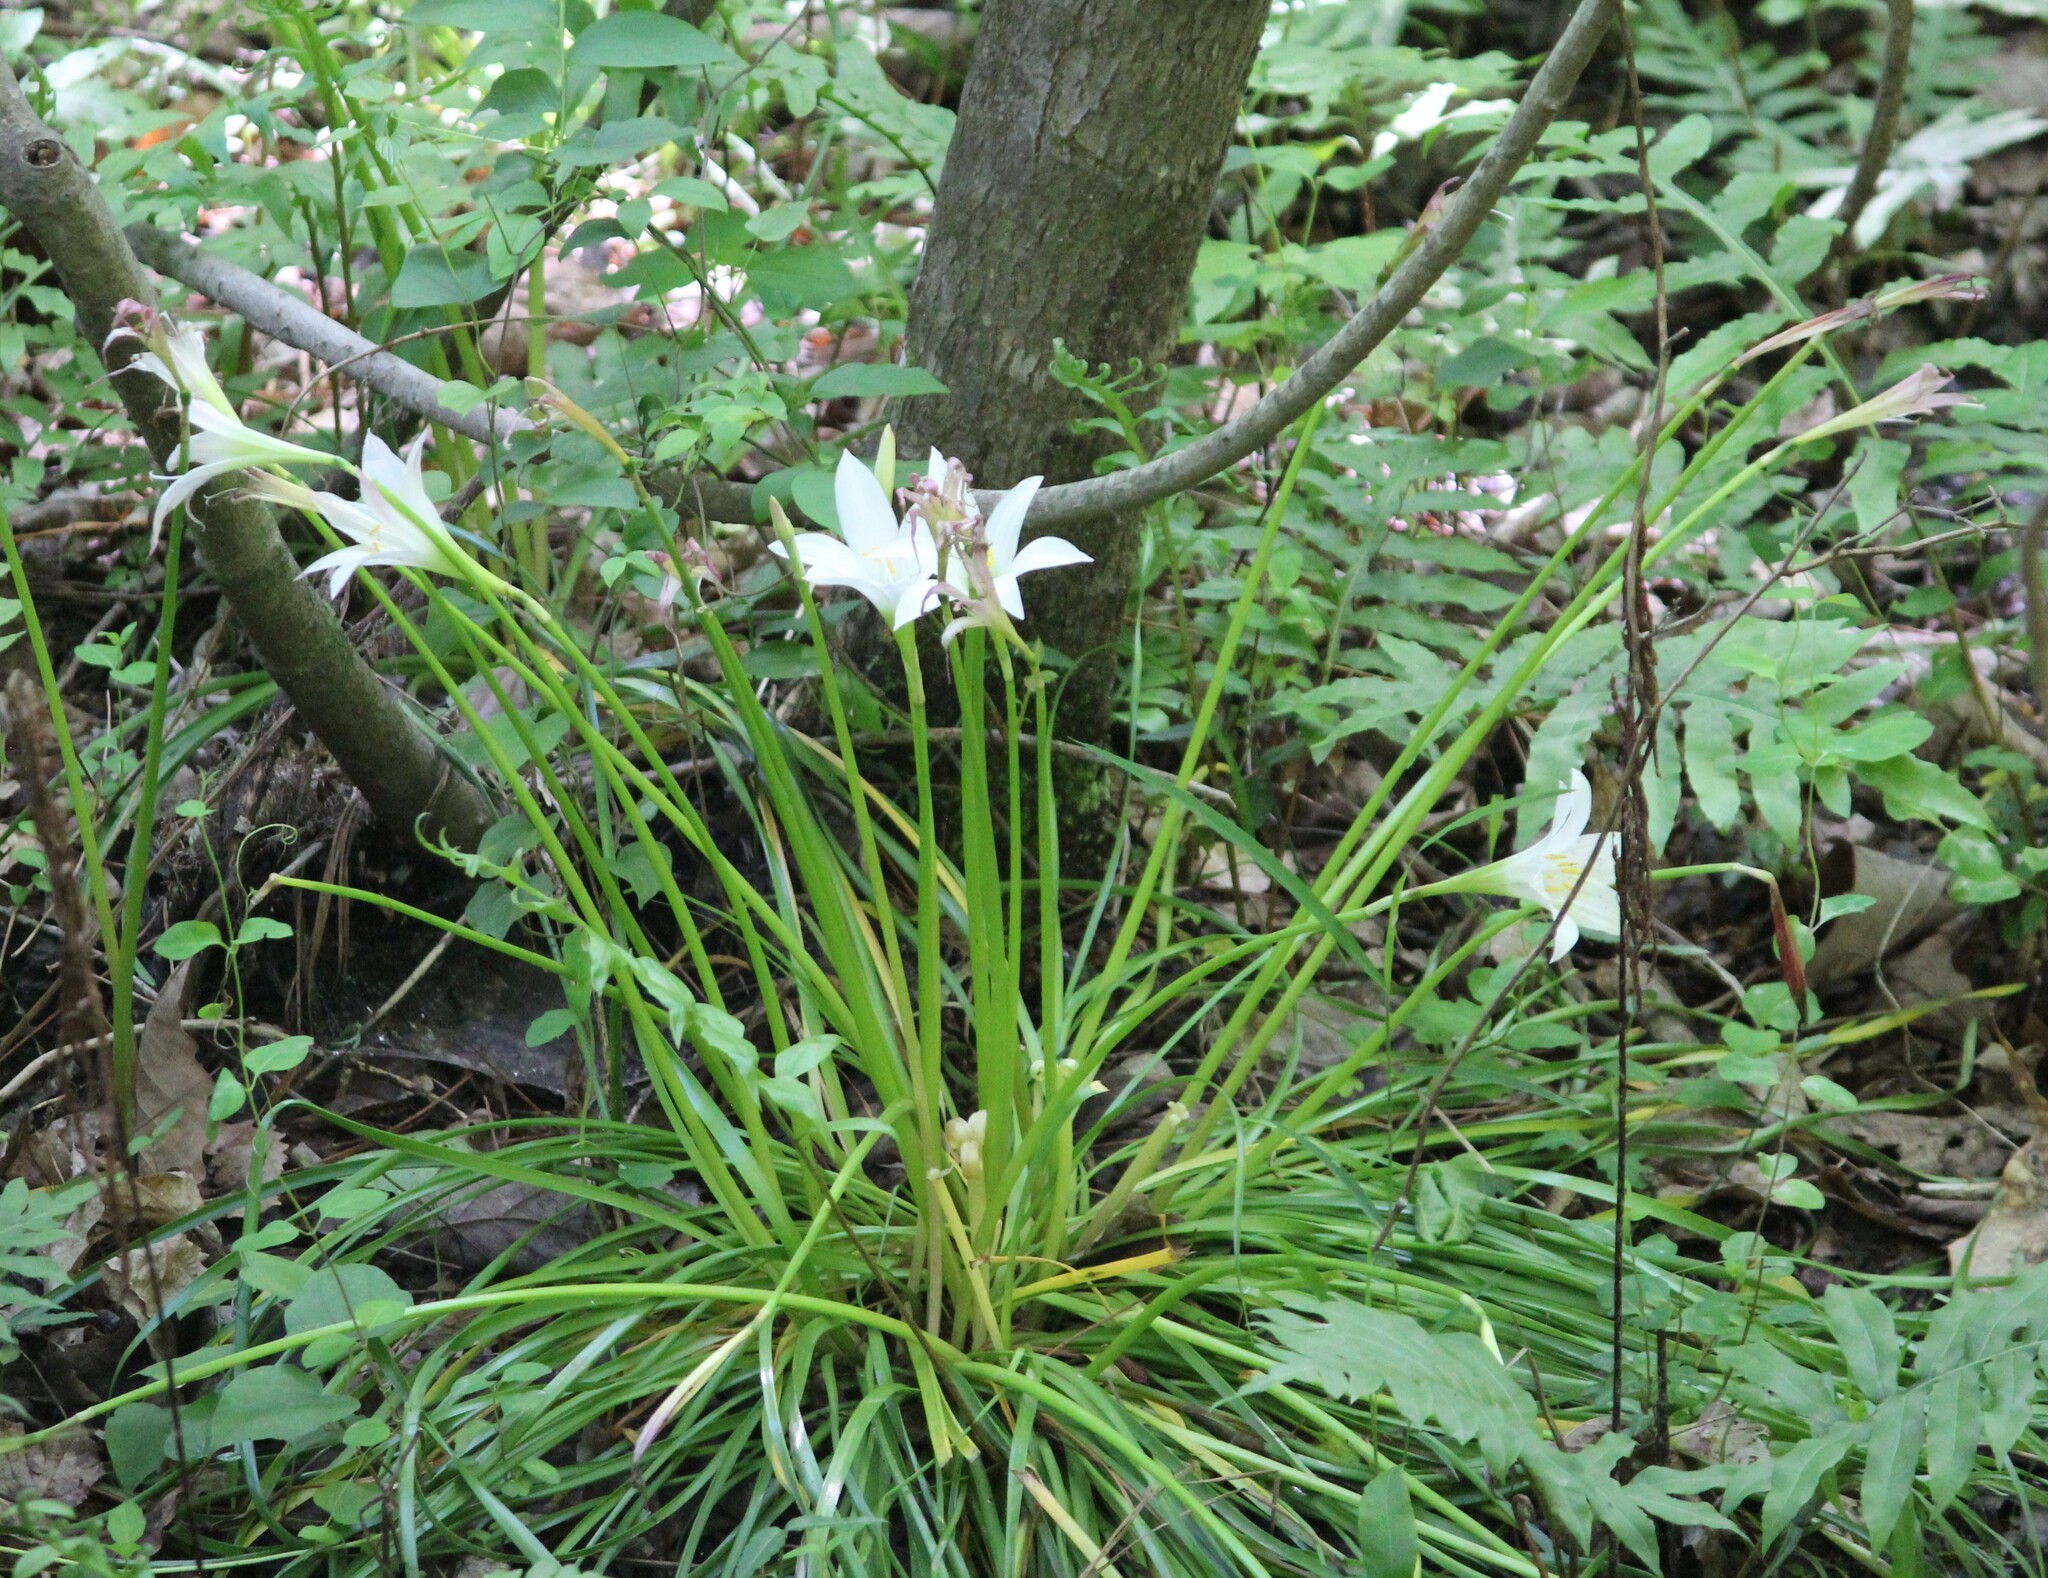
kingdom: Plantae
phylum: Tracheophyta
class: Liliopsida
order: Asparagales
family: Amaryllidaceae
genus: Zephyranthes
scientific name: Zephyranthes atamasco
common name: Atamasco lily
